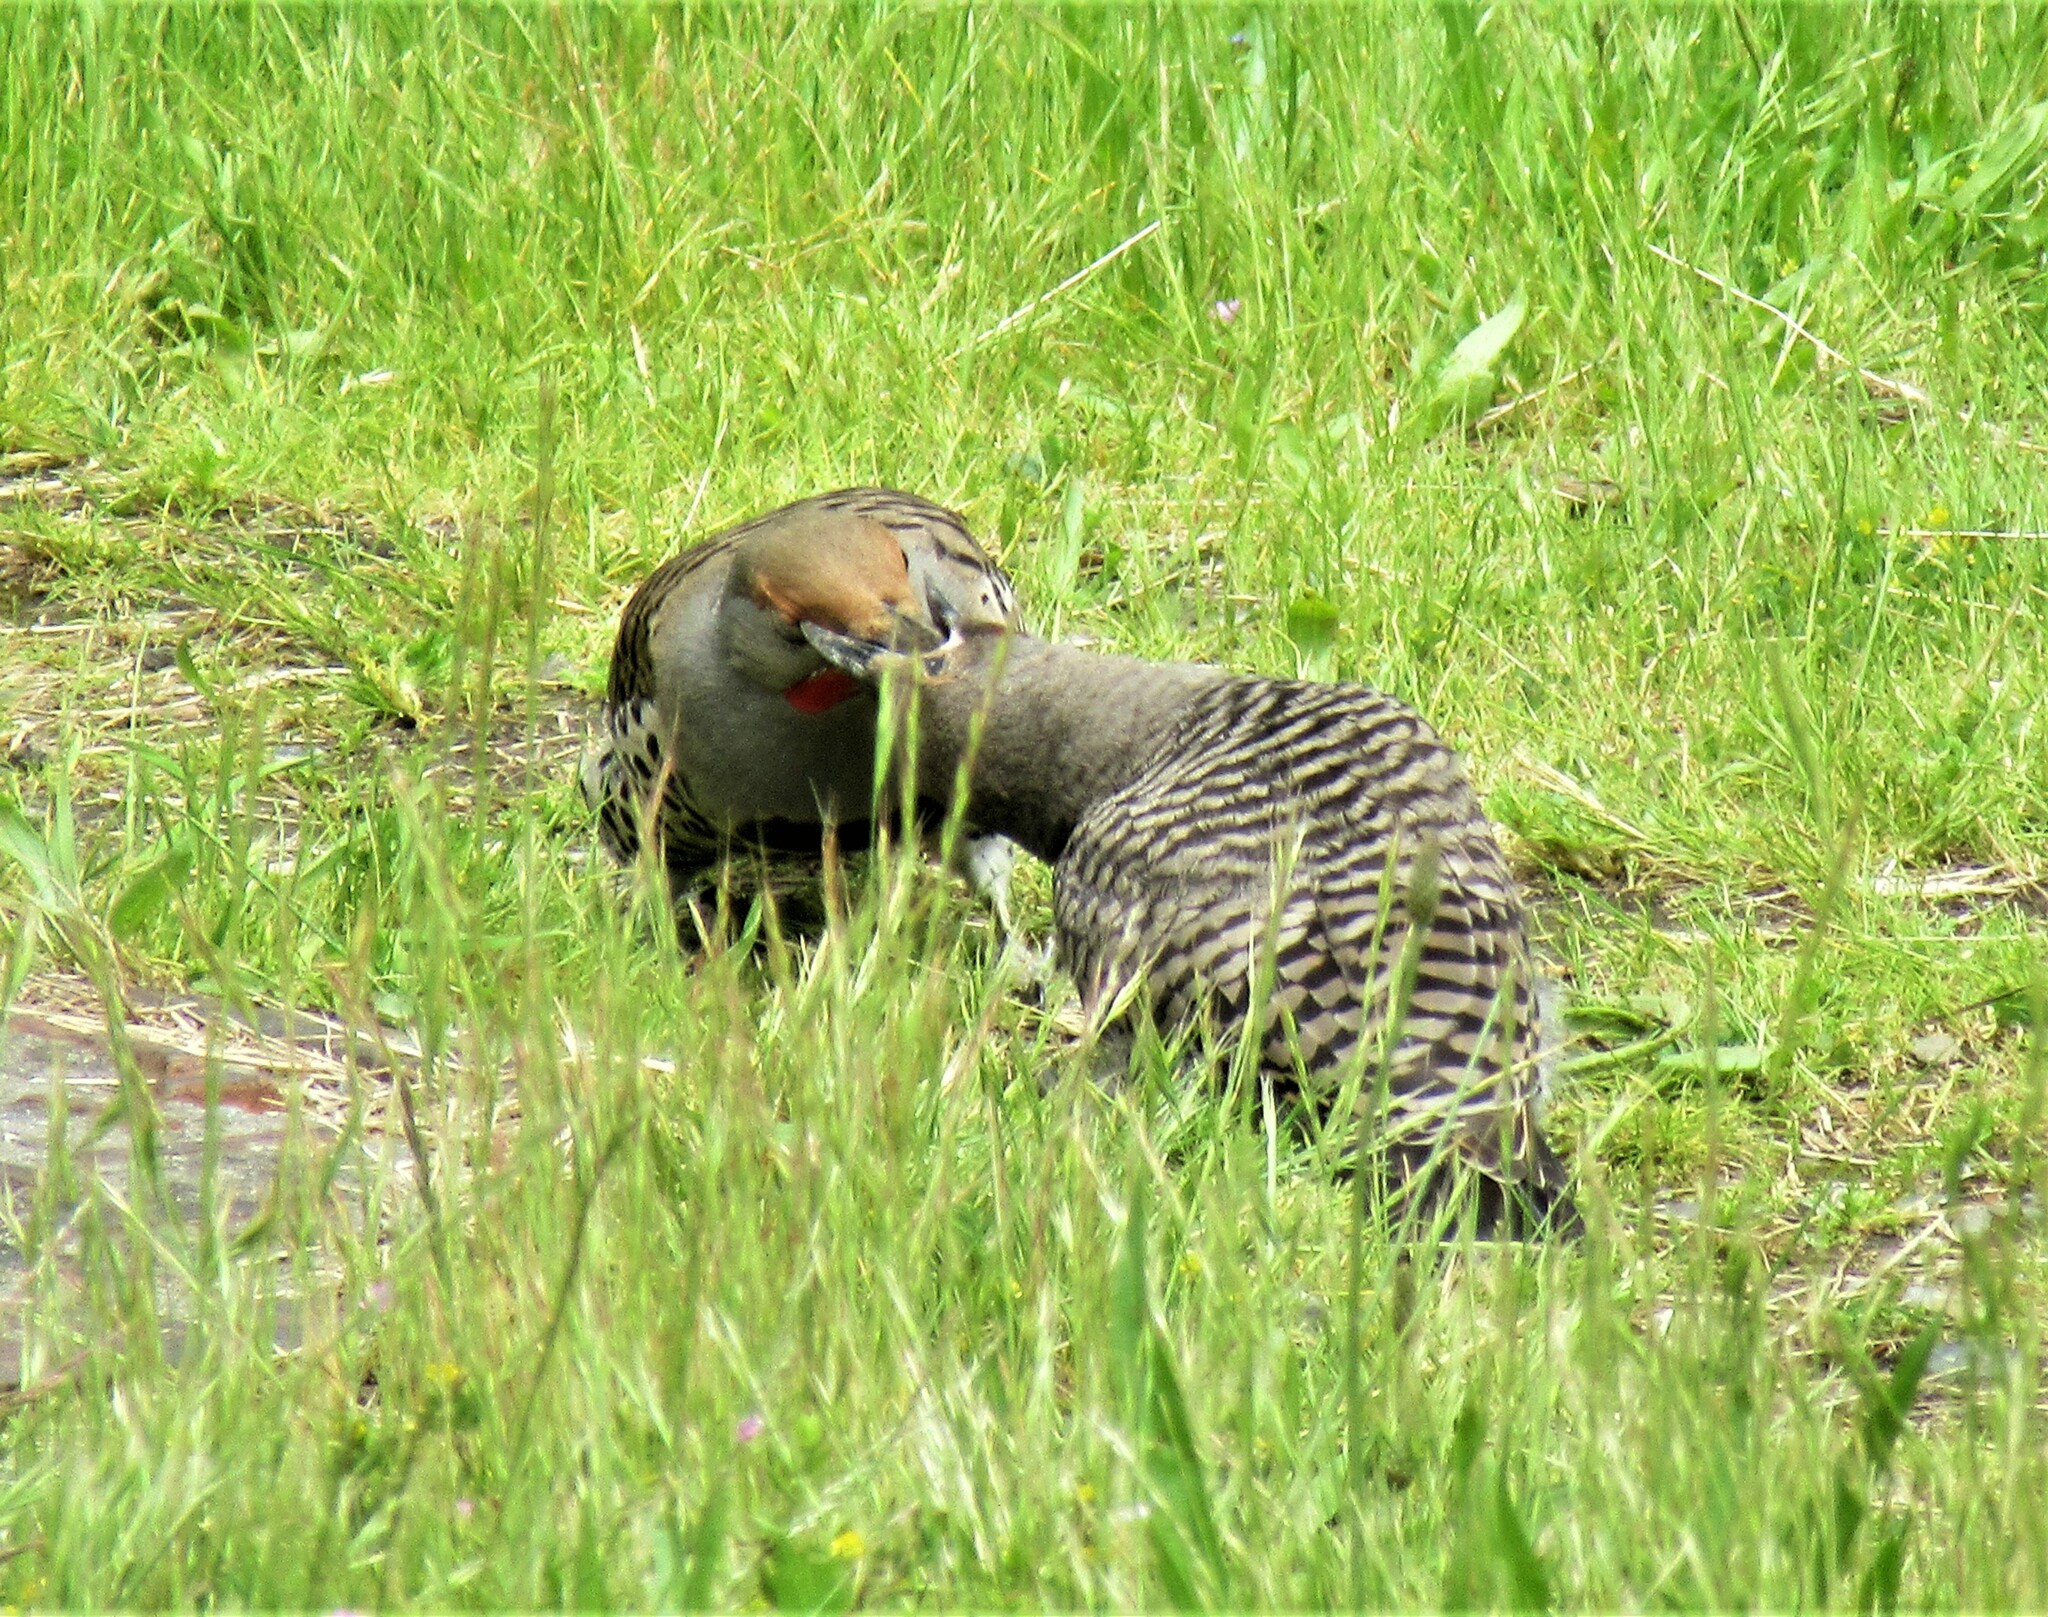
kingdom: Animalia
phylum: Chordata
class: Aves
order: Piciformes
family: Picidae
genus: Colaptes
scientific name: Colaptes auratus
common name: Northern flicker
